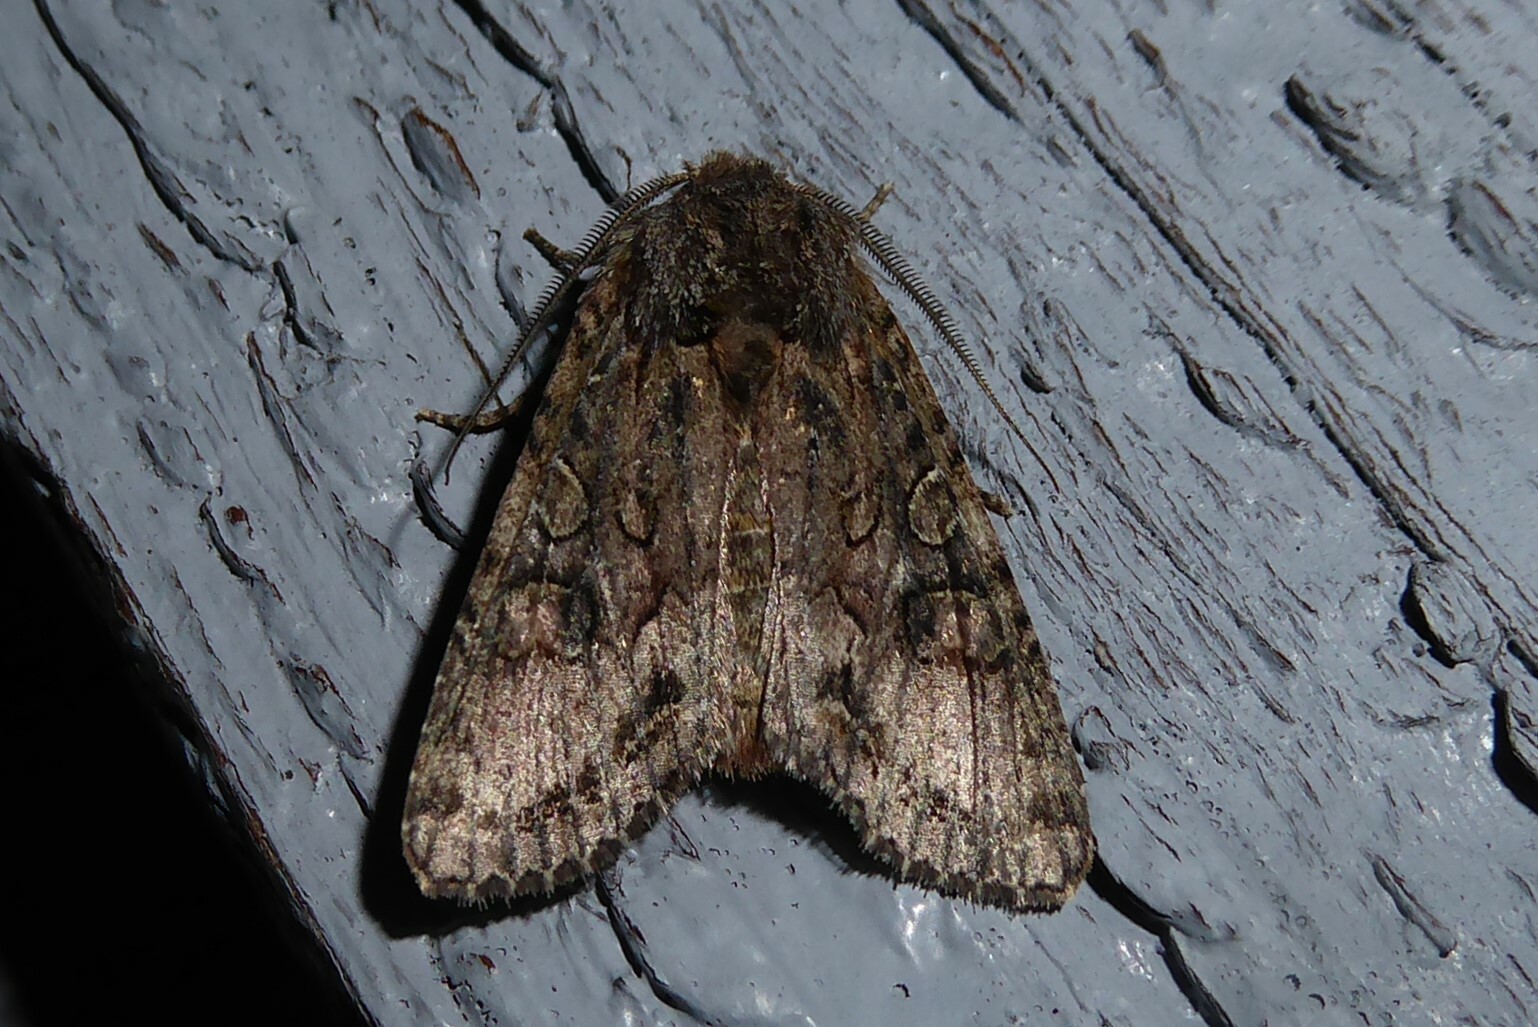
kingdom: Animalia
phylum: Arthropoda
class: Insecta
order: Lepidoptera
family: Noctuidae
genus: Ichneutica
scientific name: Ichneutica mutans
